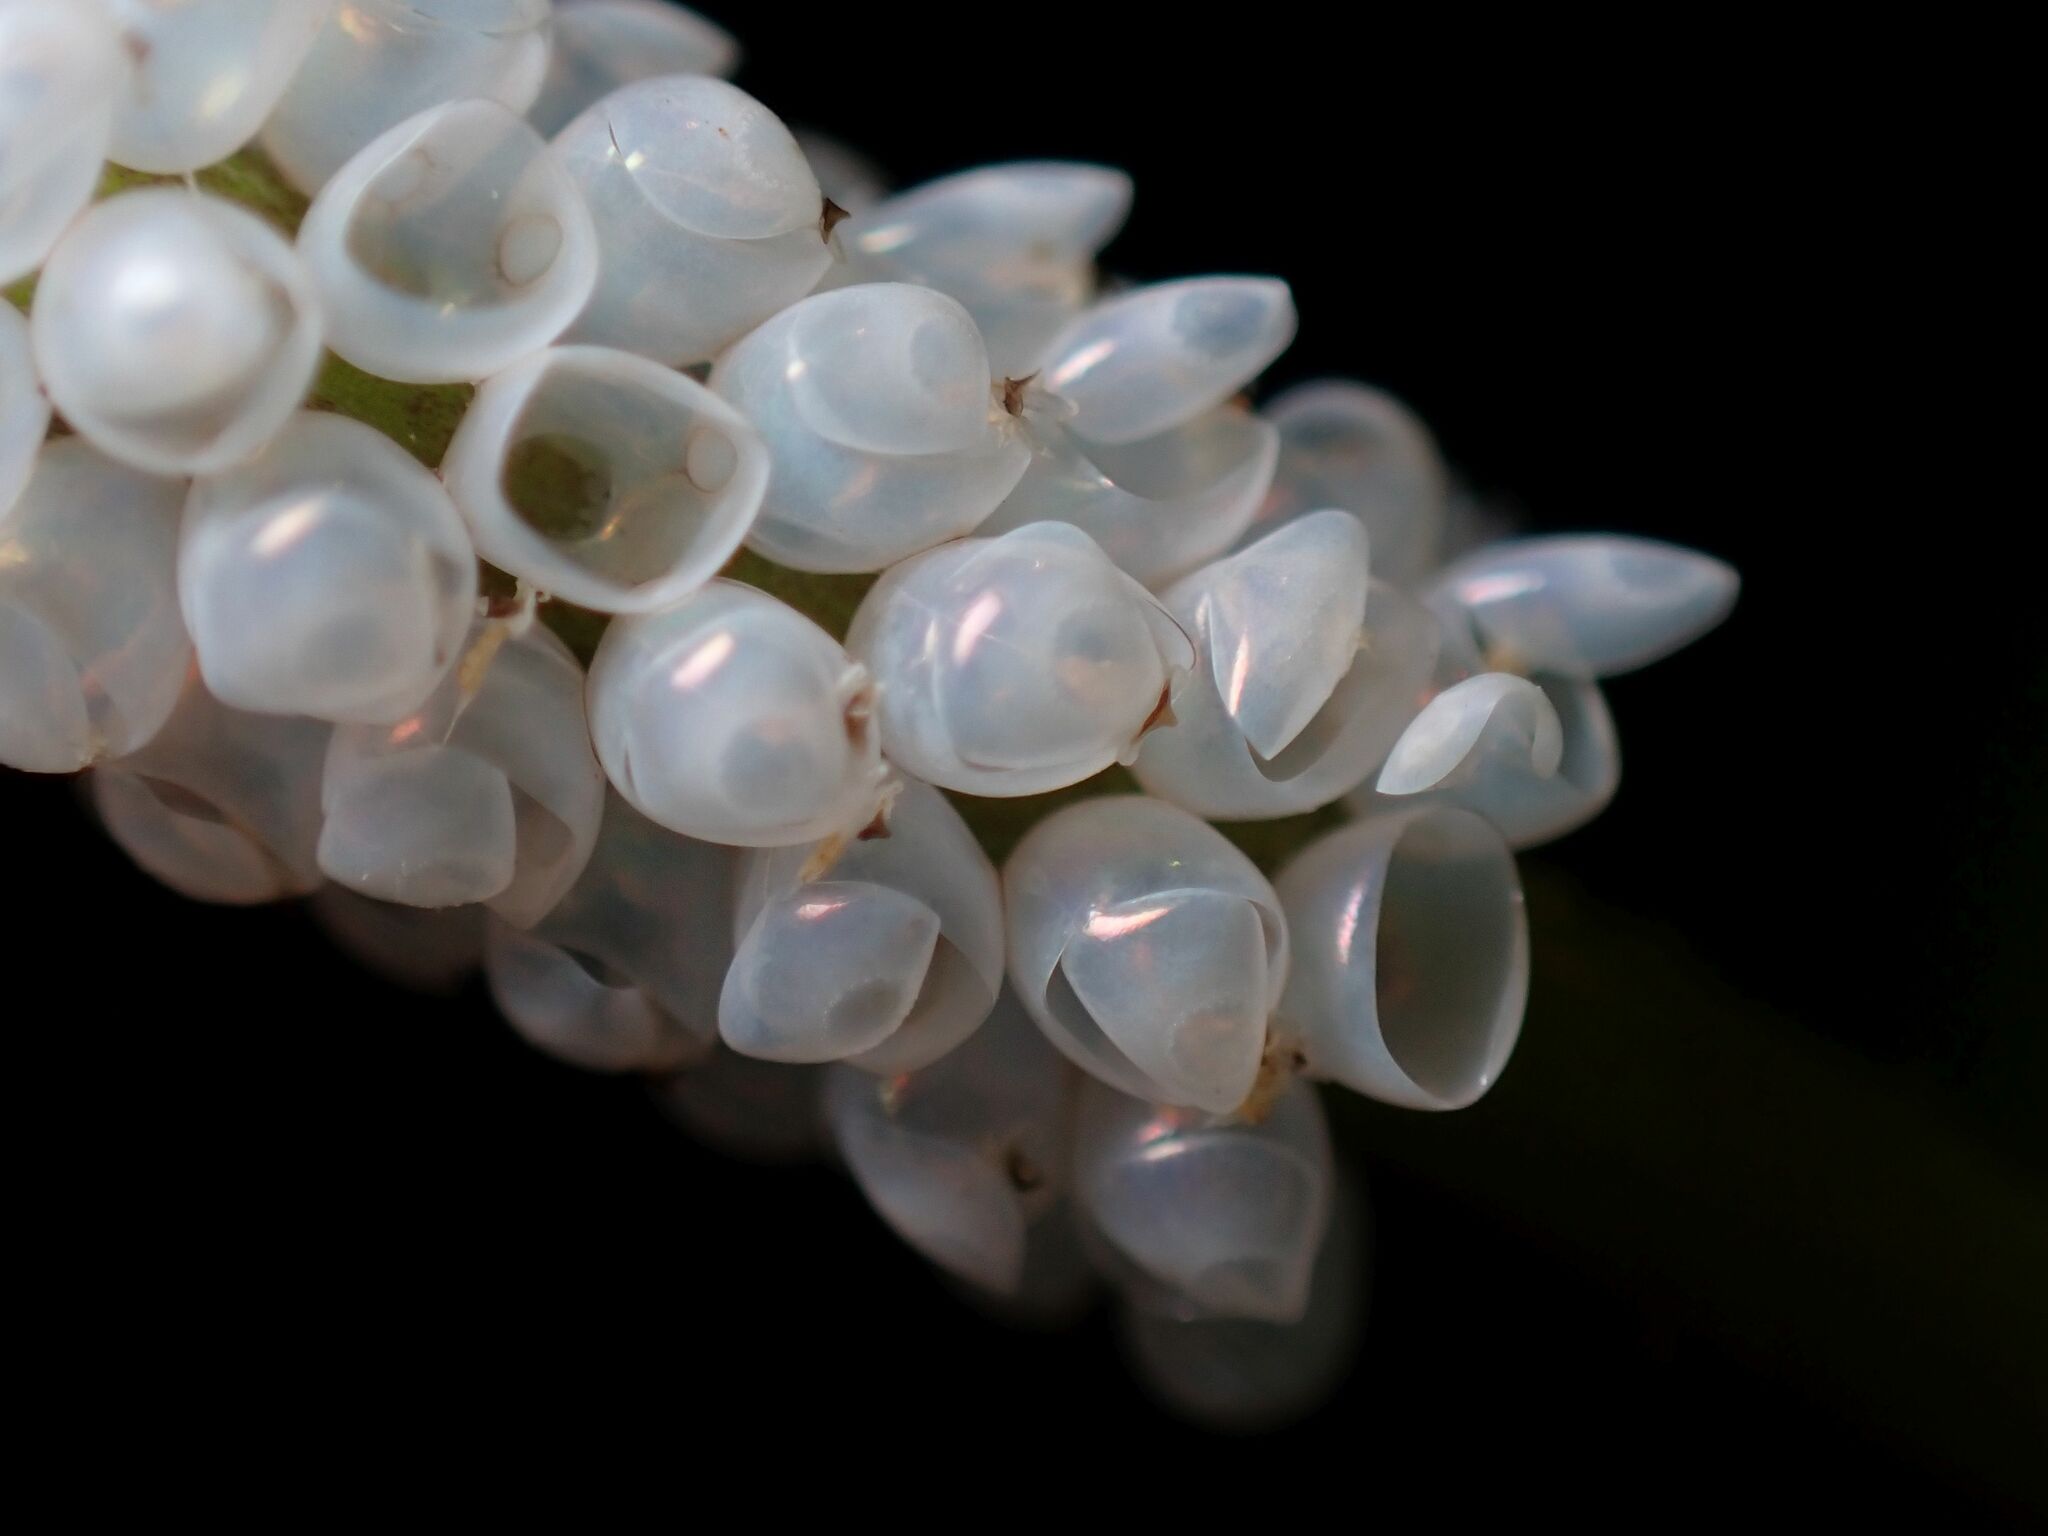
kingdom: Animalia
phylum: Arthropoda
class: Insecta
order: Hemiptera
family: Scutelleridae
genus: Tectocoris
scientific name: Tectocoris diophthalmus
